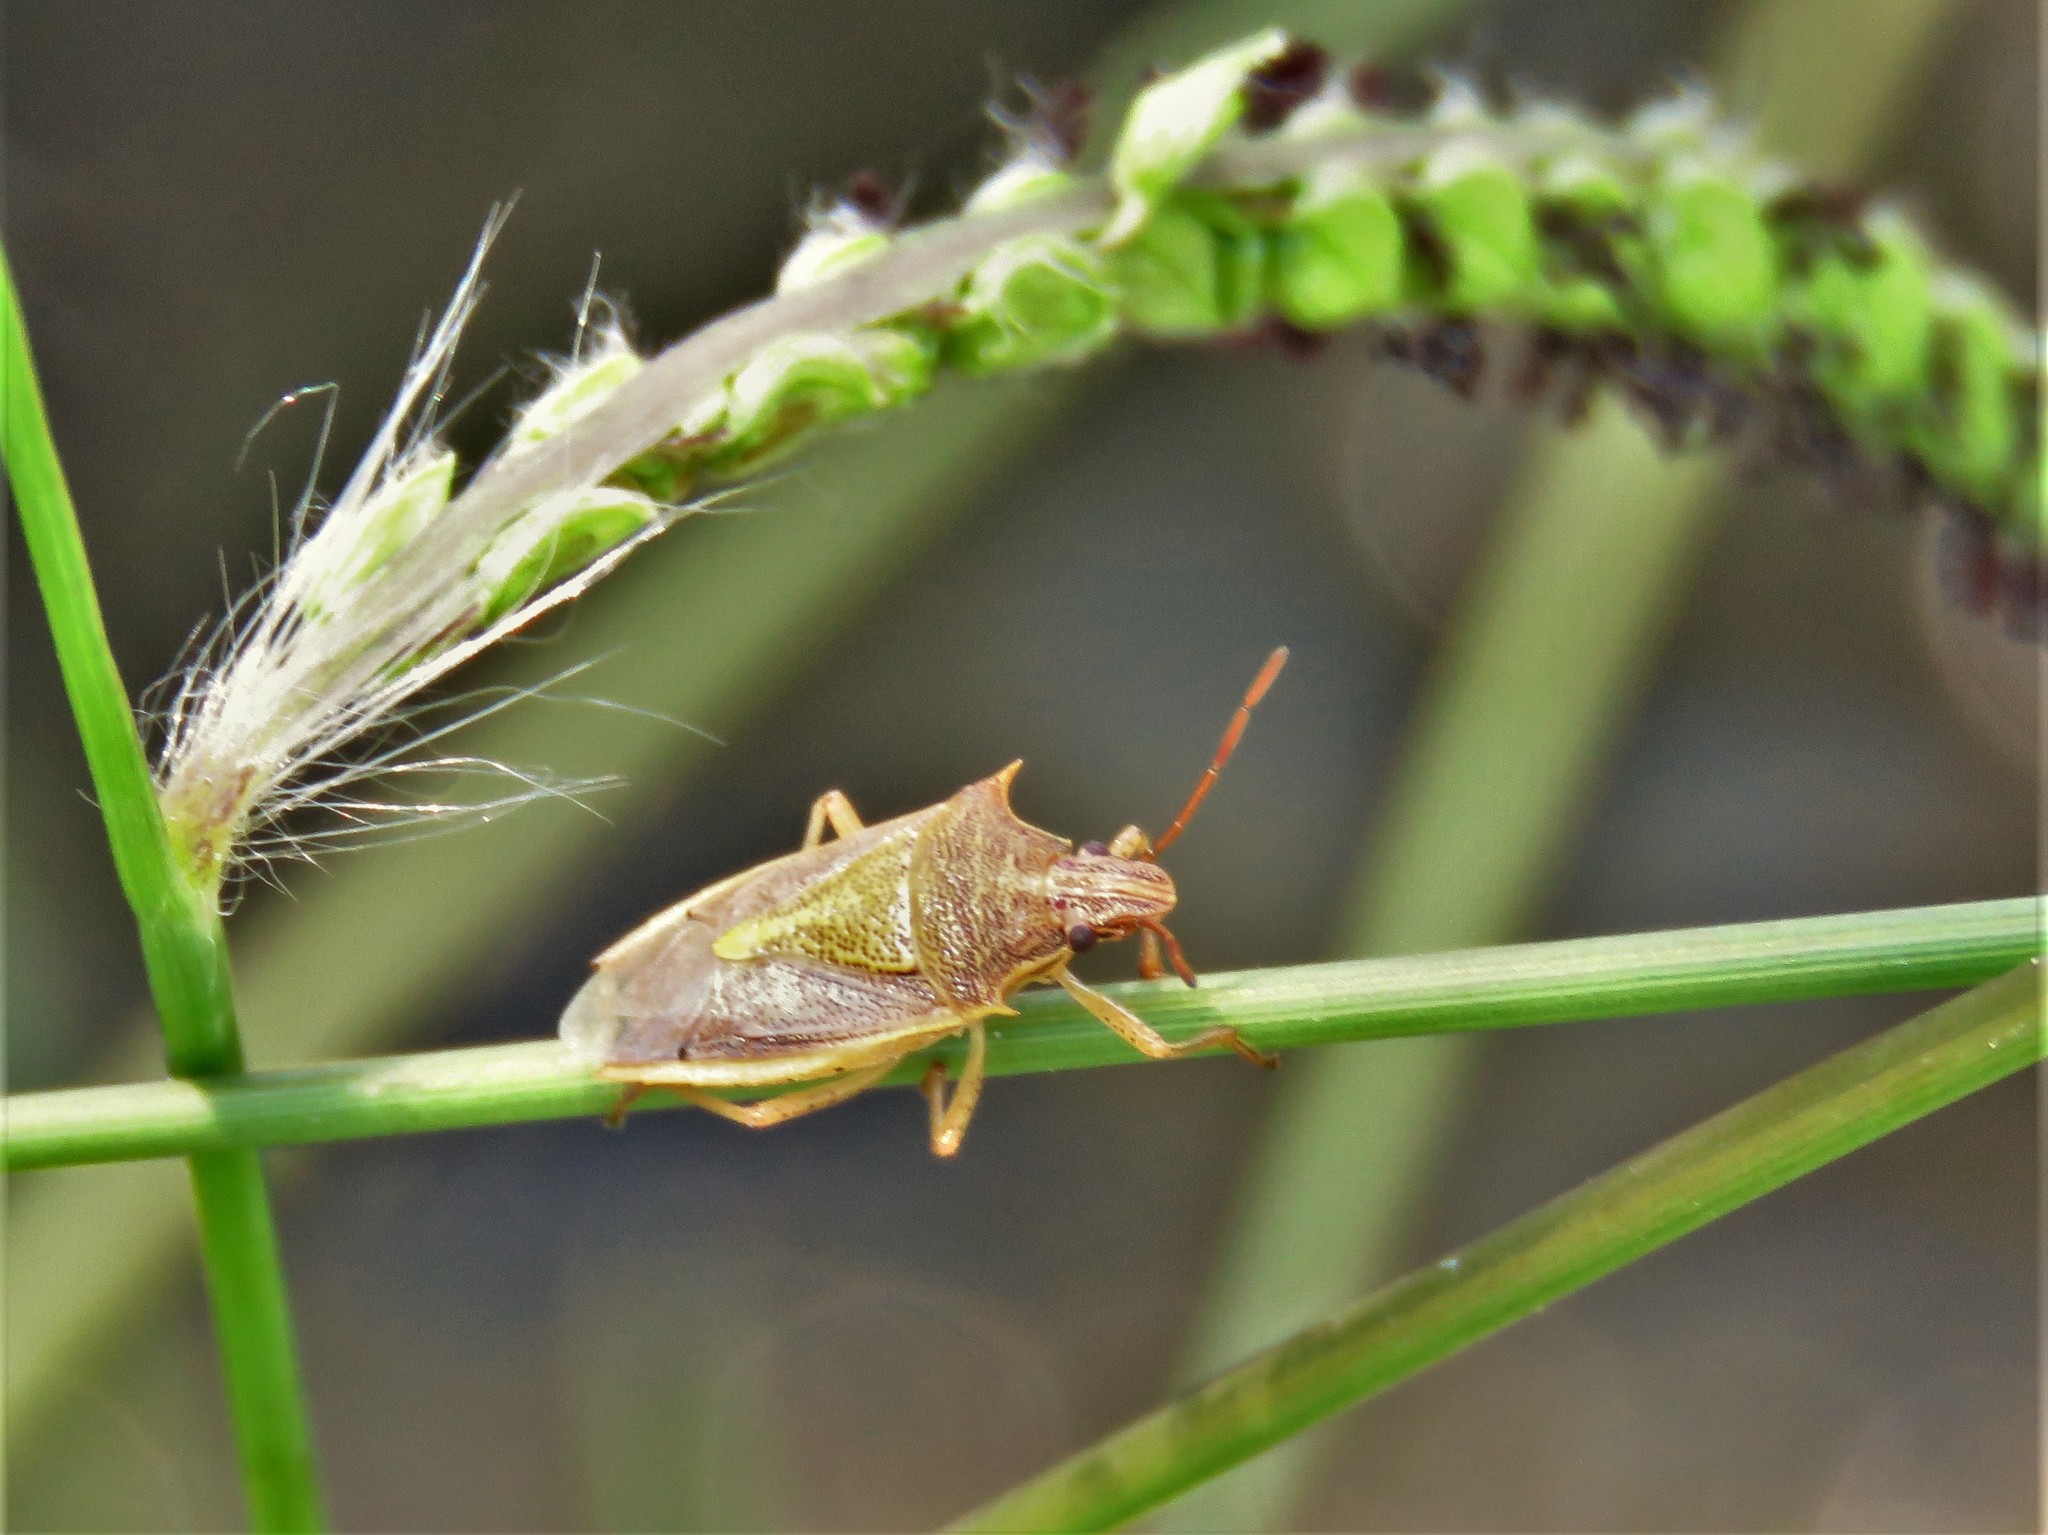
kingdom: Animalia
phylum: Arthropoda
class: Insecta
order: Hemiptera
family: Pentatomidae
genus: Oebalus
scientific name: Oebalus pugnax
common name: Rice stink bug
